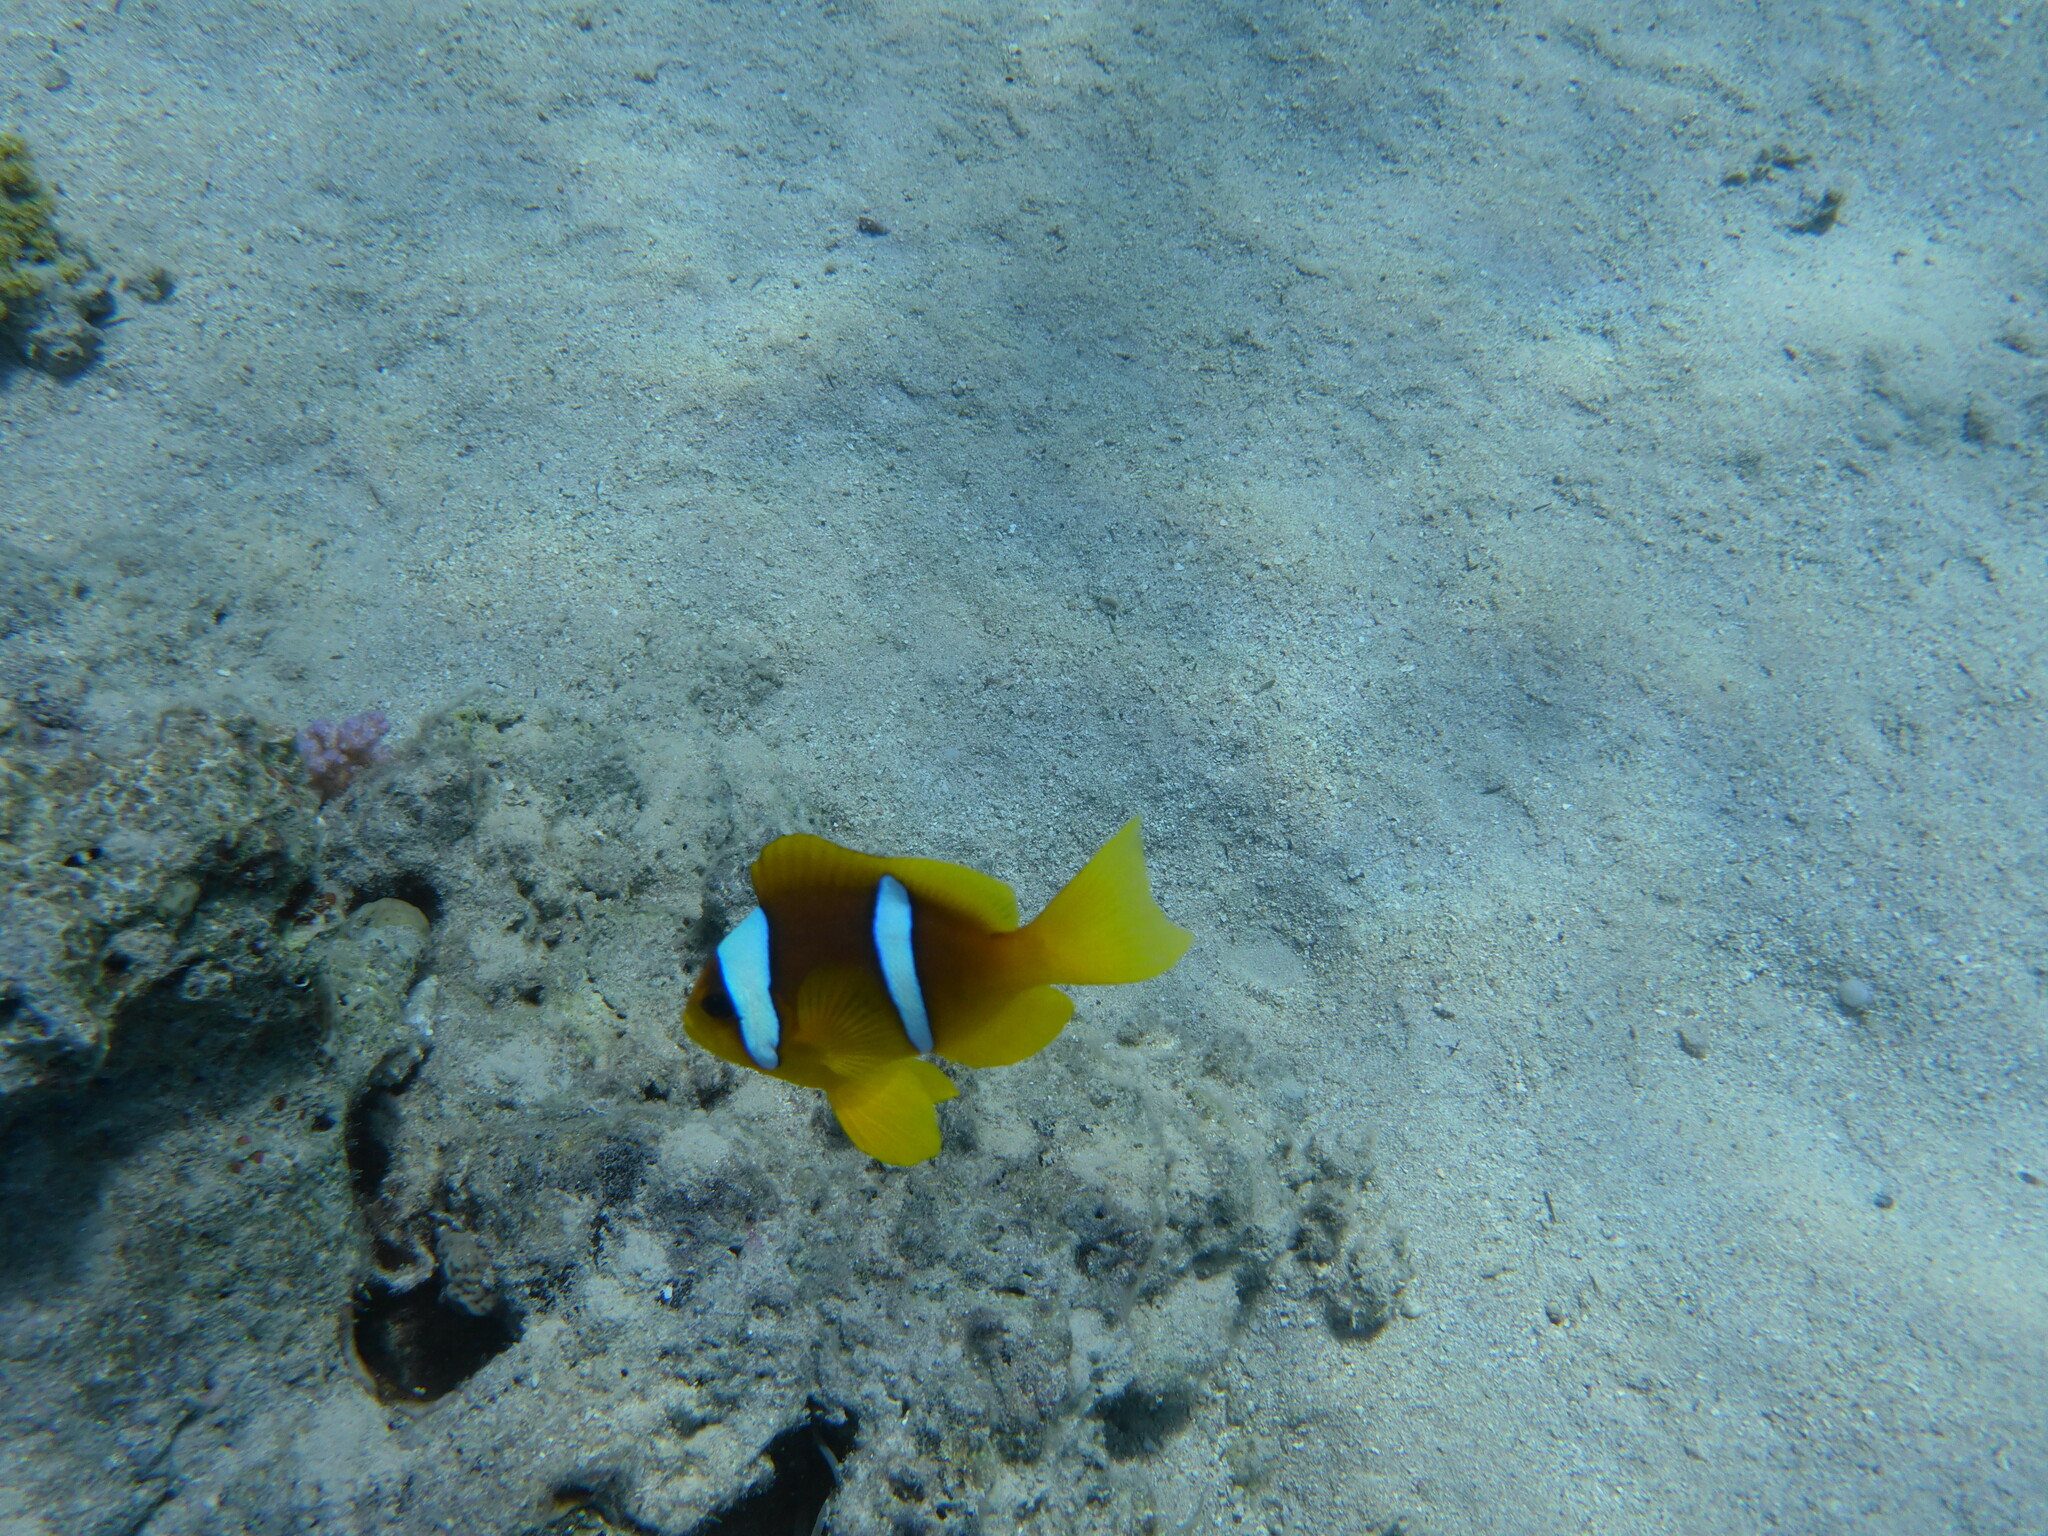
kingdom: Animalia
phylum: Chordata
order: Perciformes
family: Pomacentridae
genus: Amphiprion
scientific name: Amphiprion bicinctus
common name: Two-banded anemonefish
